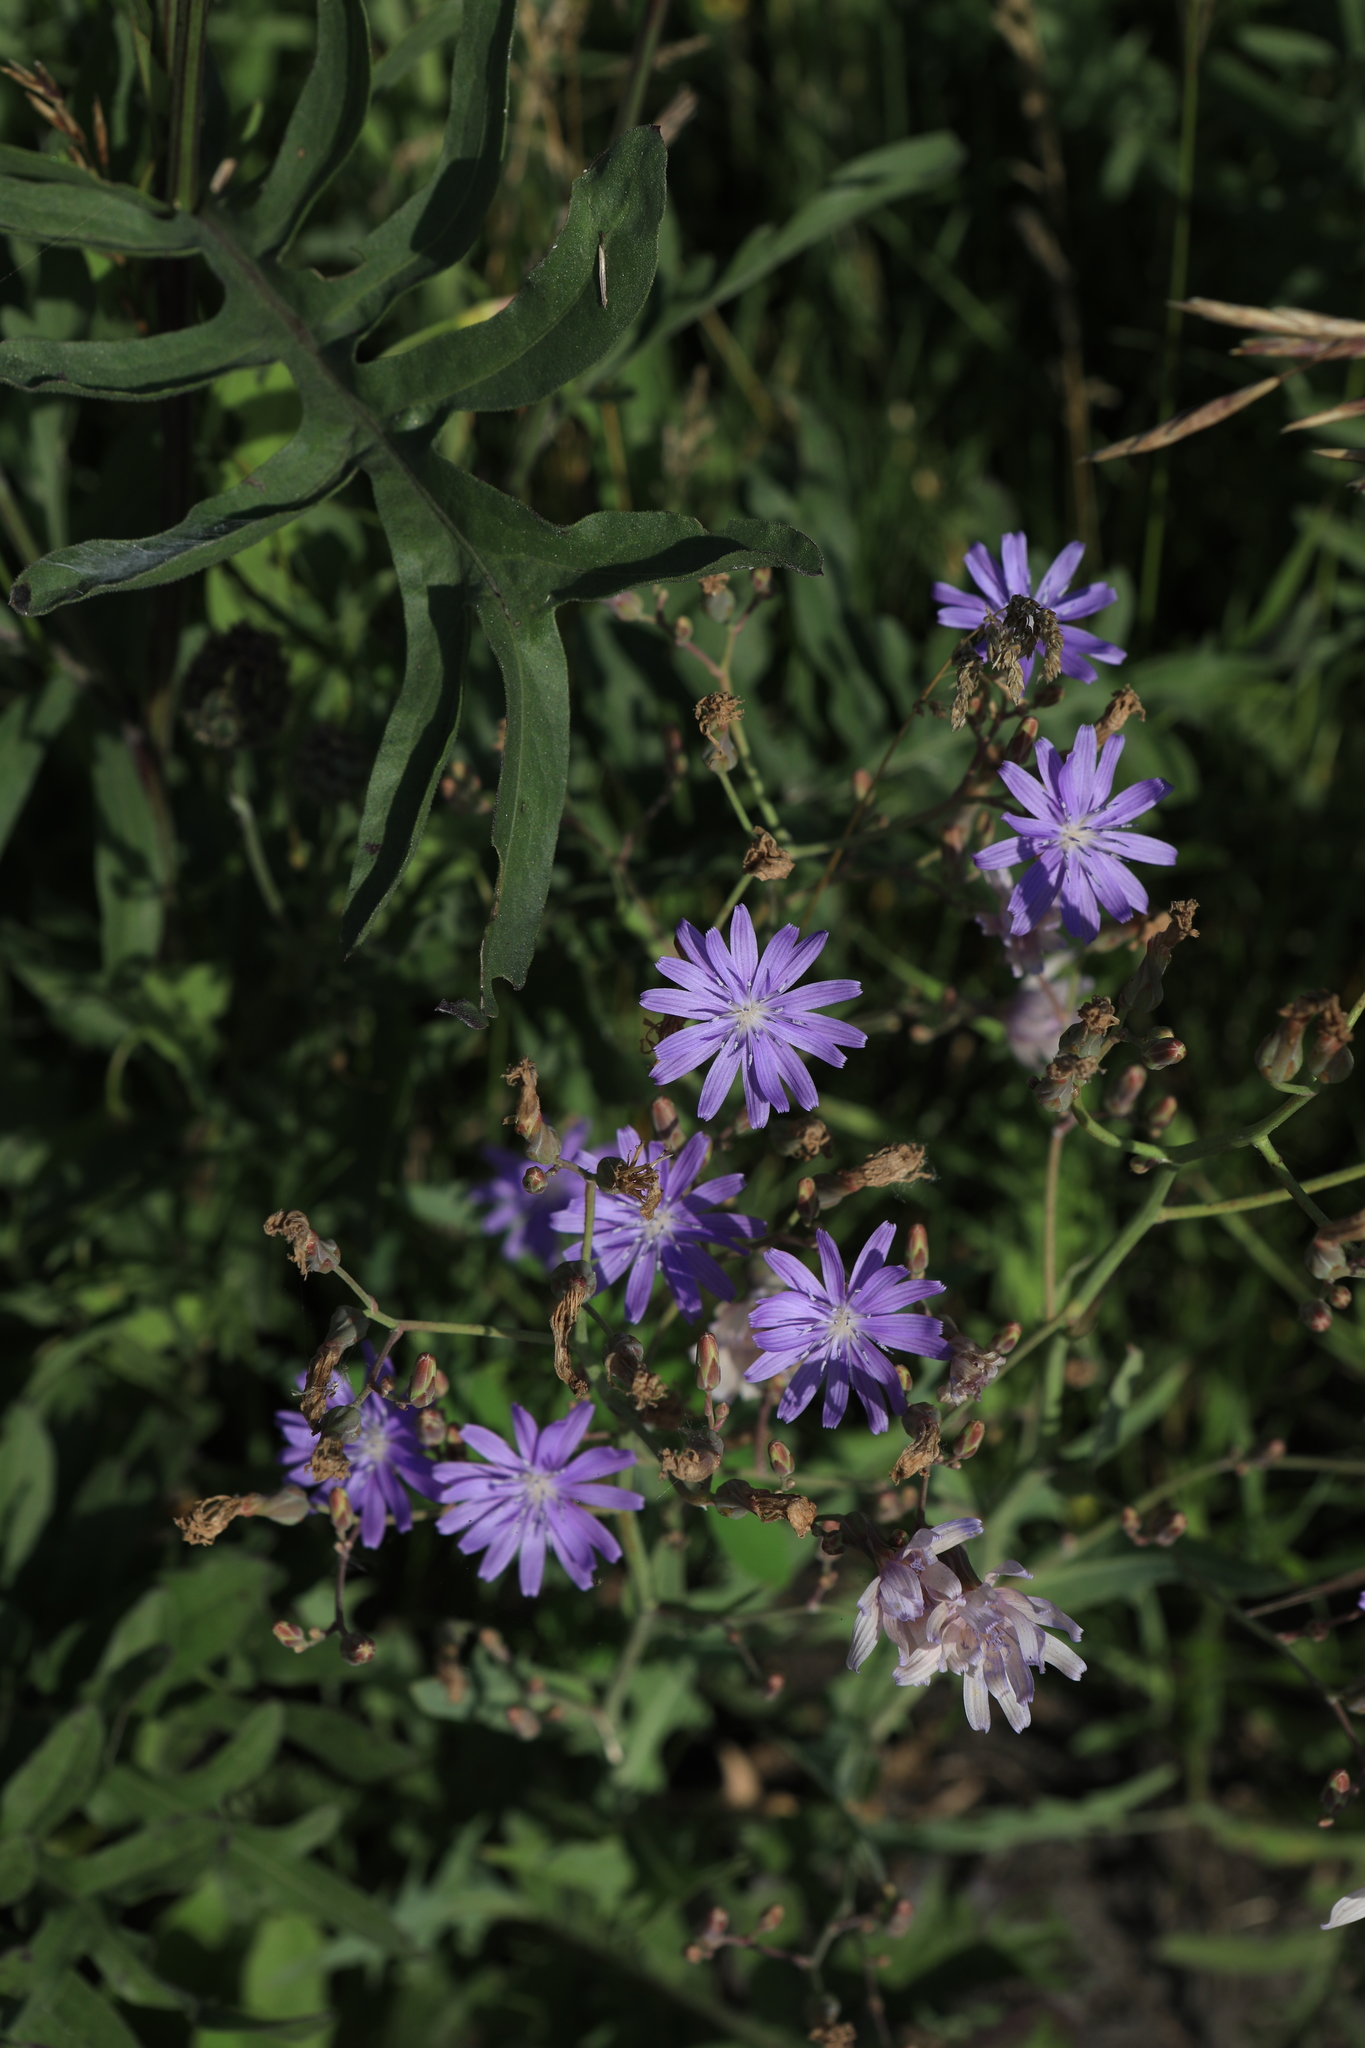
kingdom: Plantae
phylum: Tracheophyta
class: Magnoliopsida
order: Asterales
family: Asteraceae
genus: Lactuca
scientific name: Lactuca tatarica
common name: Blue lettuce
